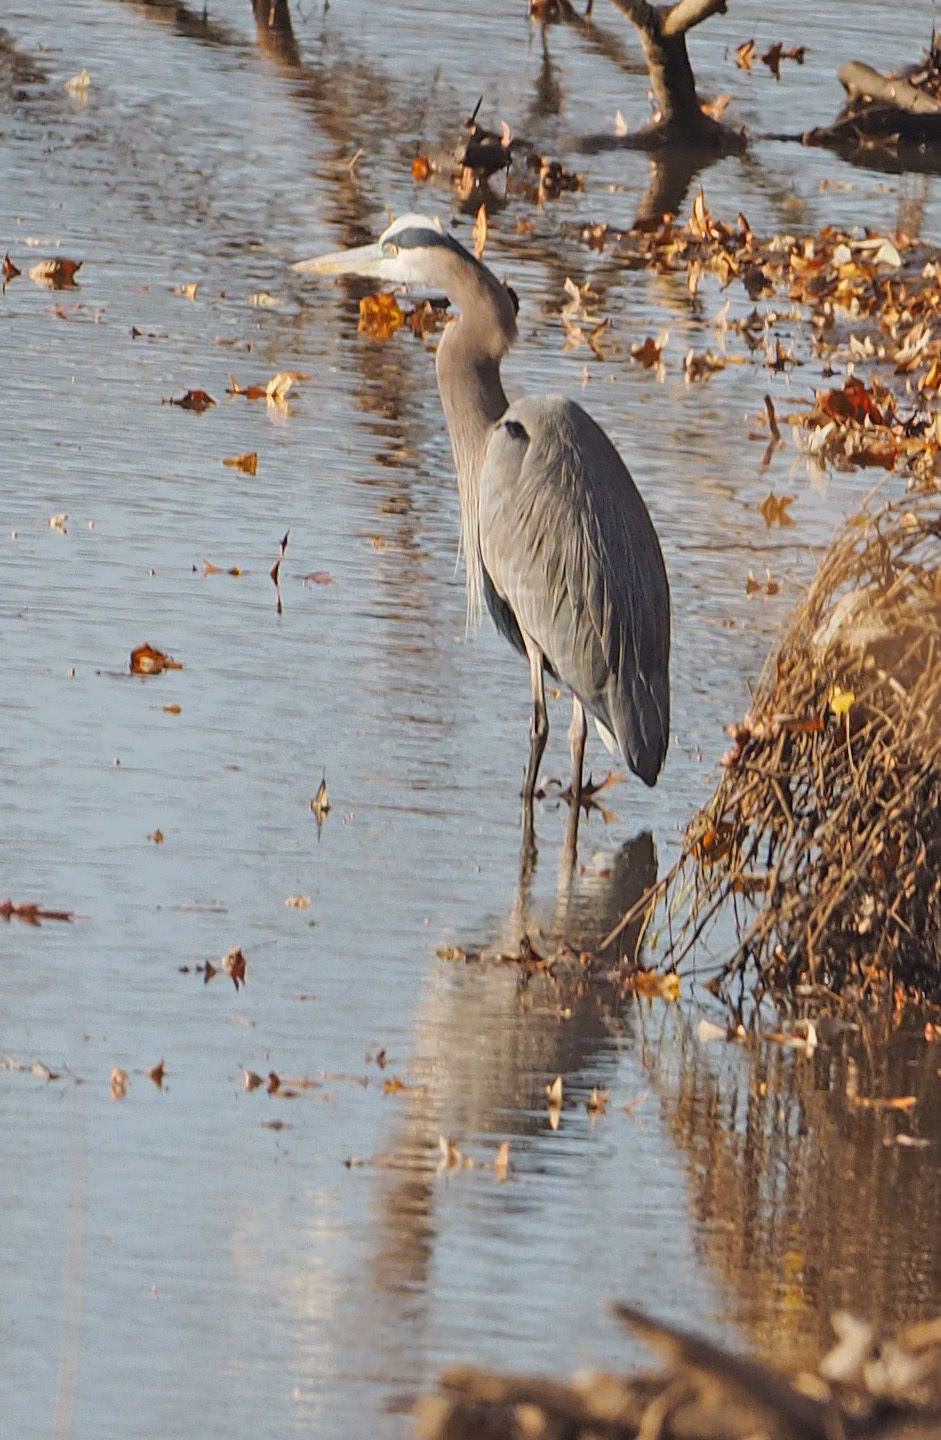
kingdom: Animalia
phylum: Chordata
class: Aves
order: Pelecaniformes
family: Ardeidae
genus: Ardea
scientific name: Ardea herodias
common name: Great blue heron
